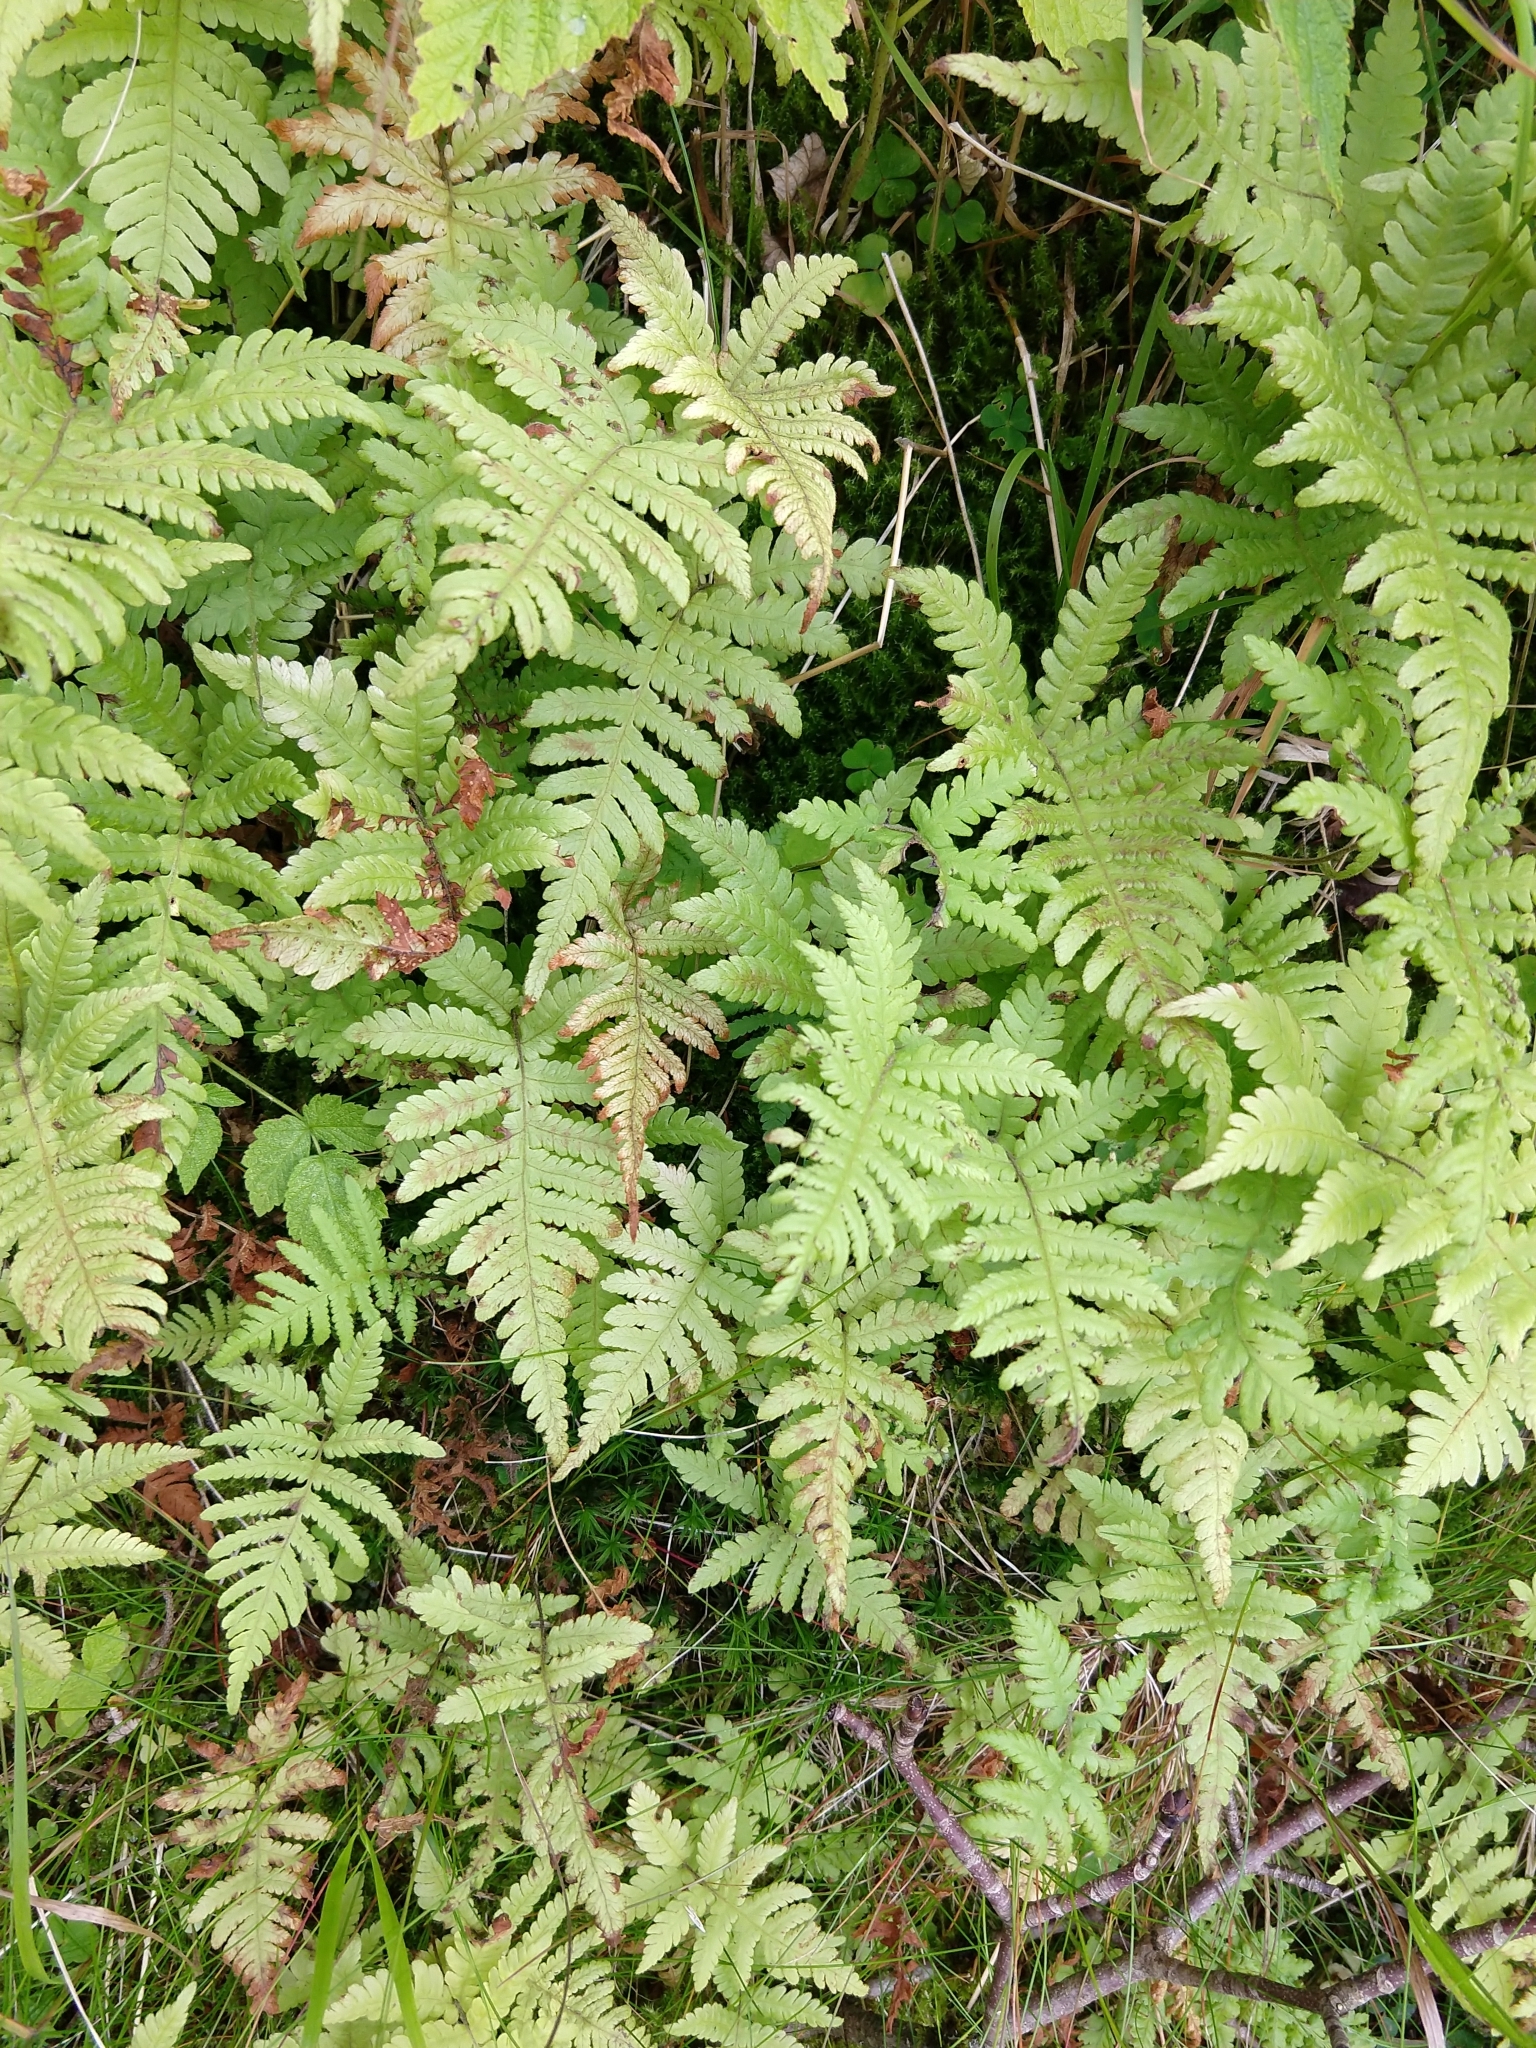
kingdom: Plantae
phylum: Tracheophyta
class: Polypodiopsida
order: Polypodiales
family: Thelypteridaceae
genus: Phegopteris
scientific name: Phegopteris connectilis
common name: Beech fern
